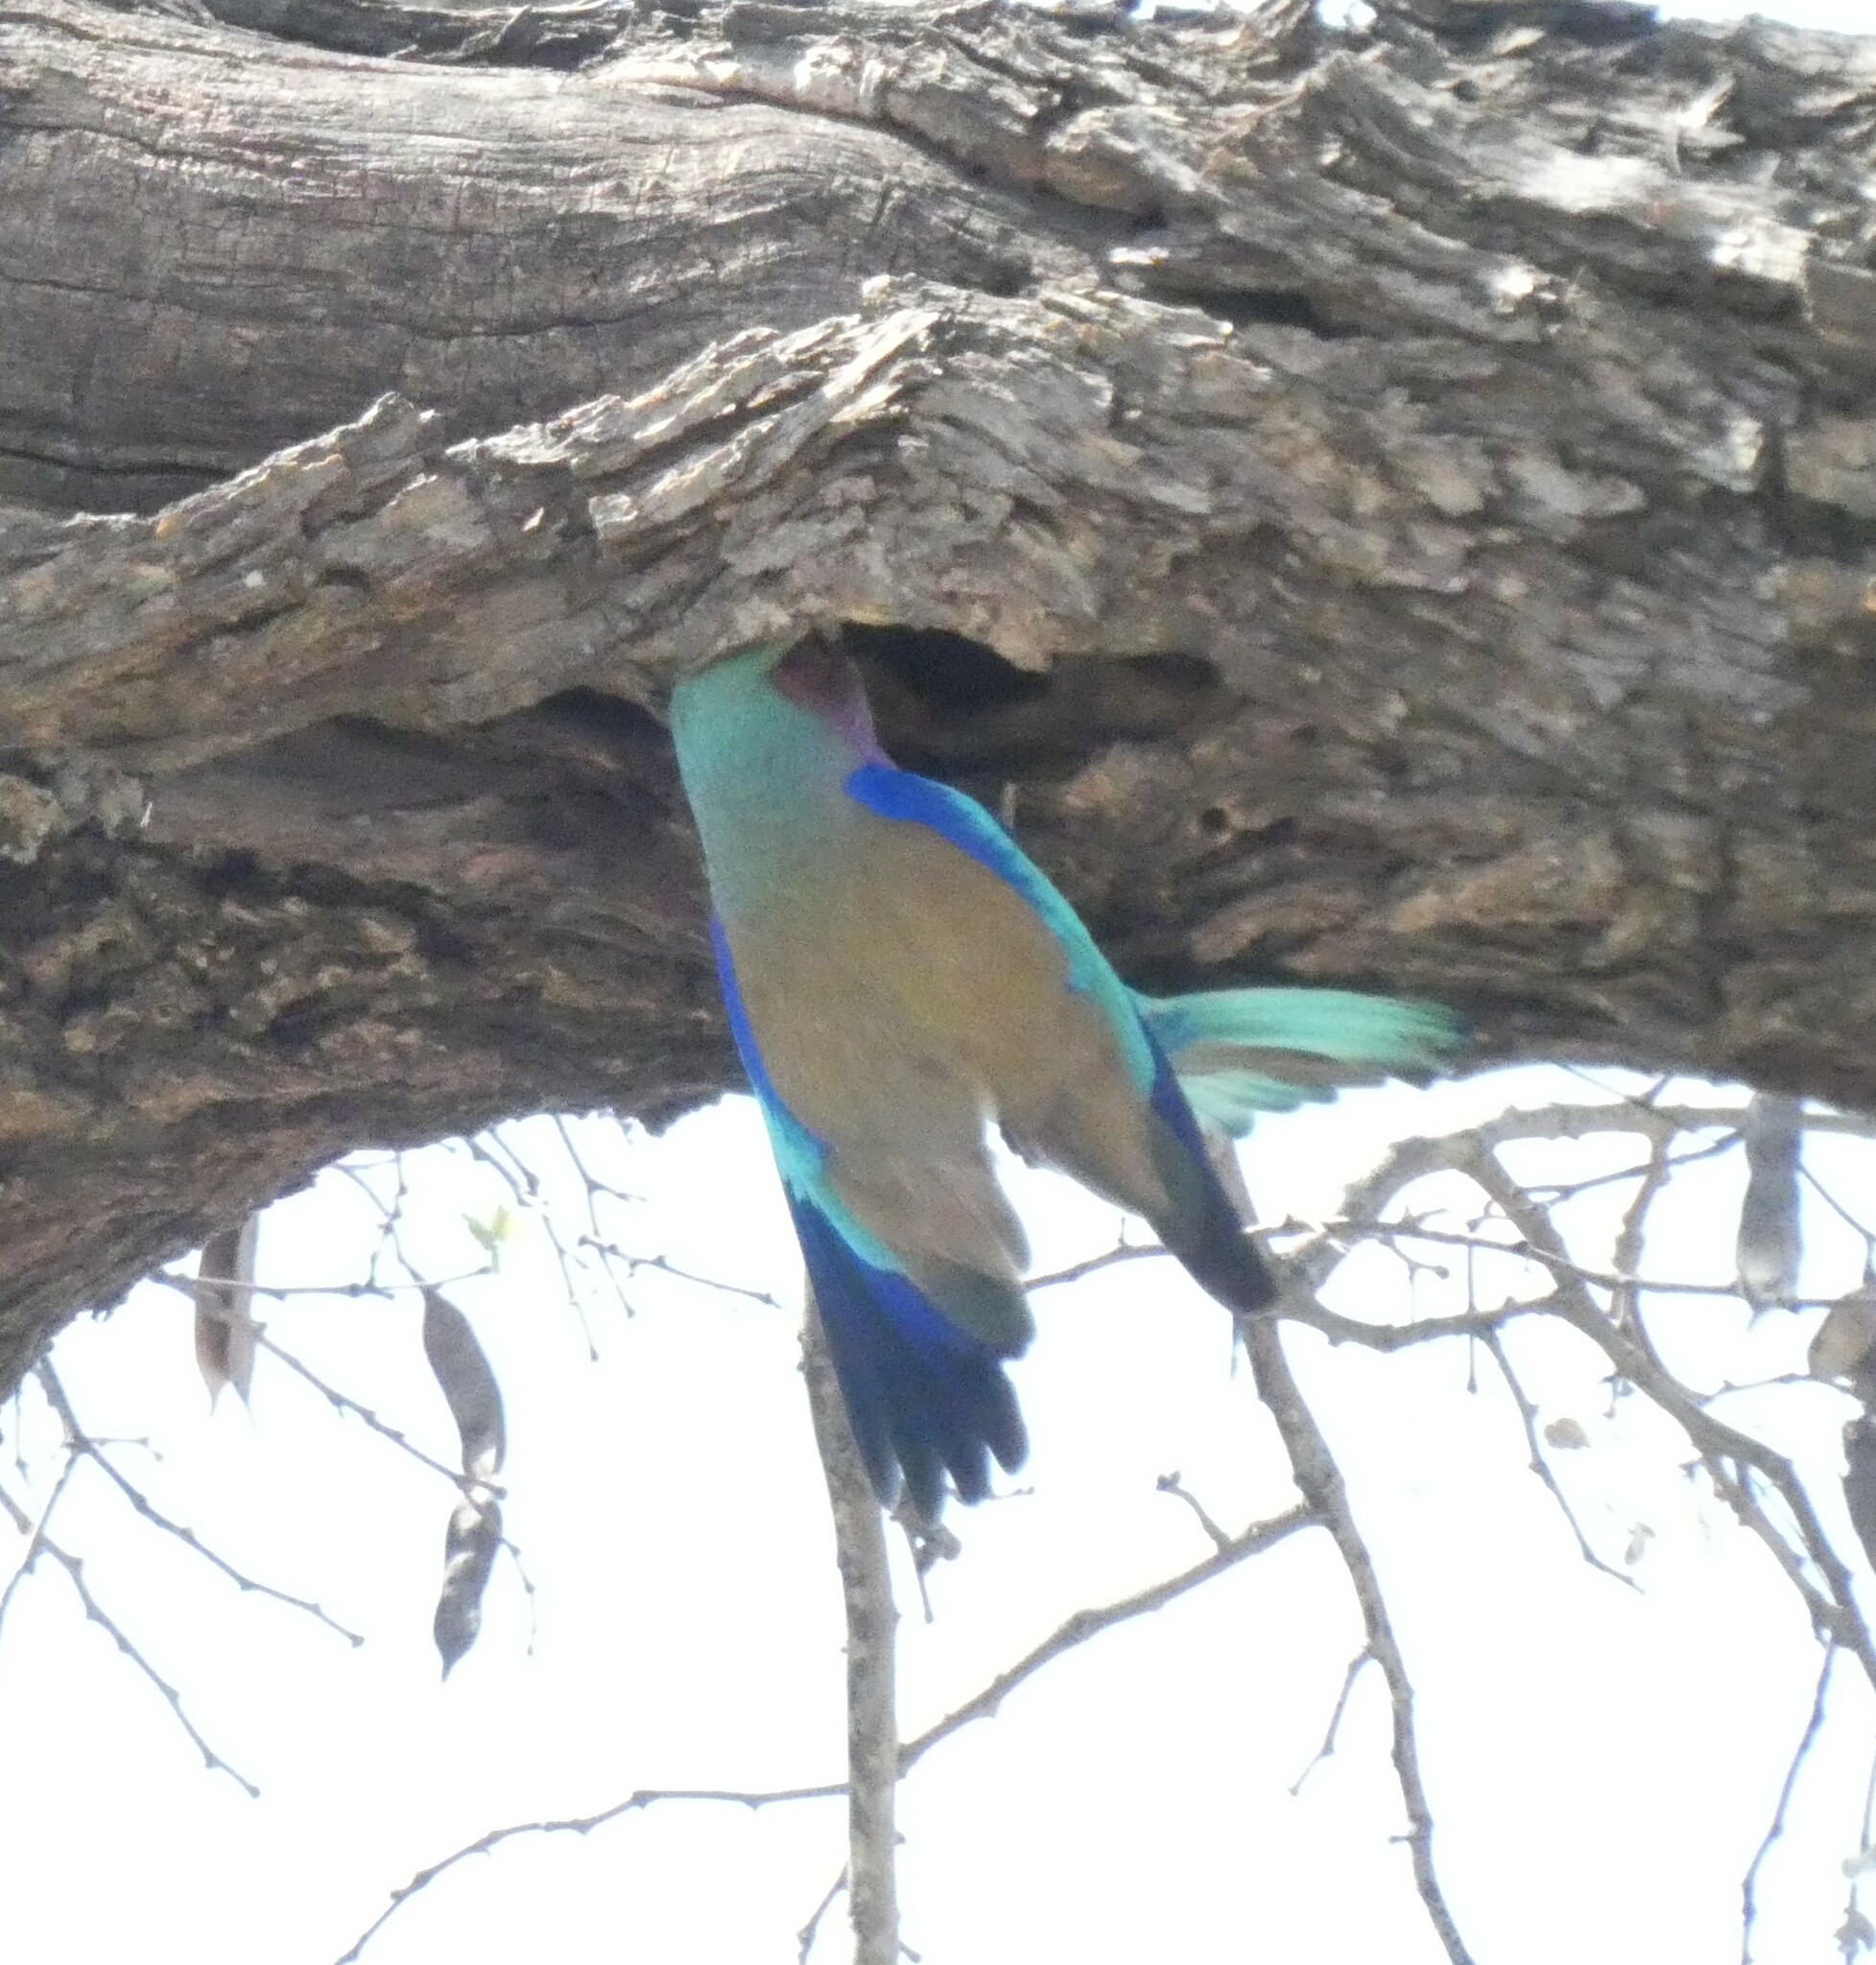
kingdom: Animalia
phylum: Chordata
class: Aves
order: Coraciiformes
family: Coraciidae
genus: Coracias
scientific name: Coracias caudatus
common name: Lilac-breasted roller
